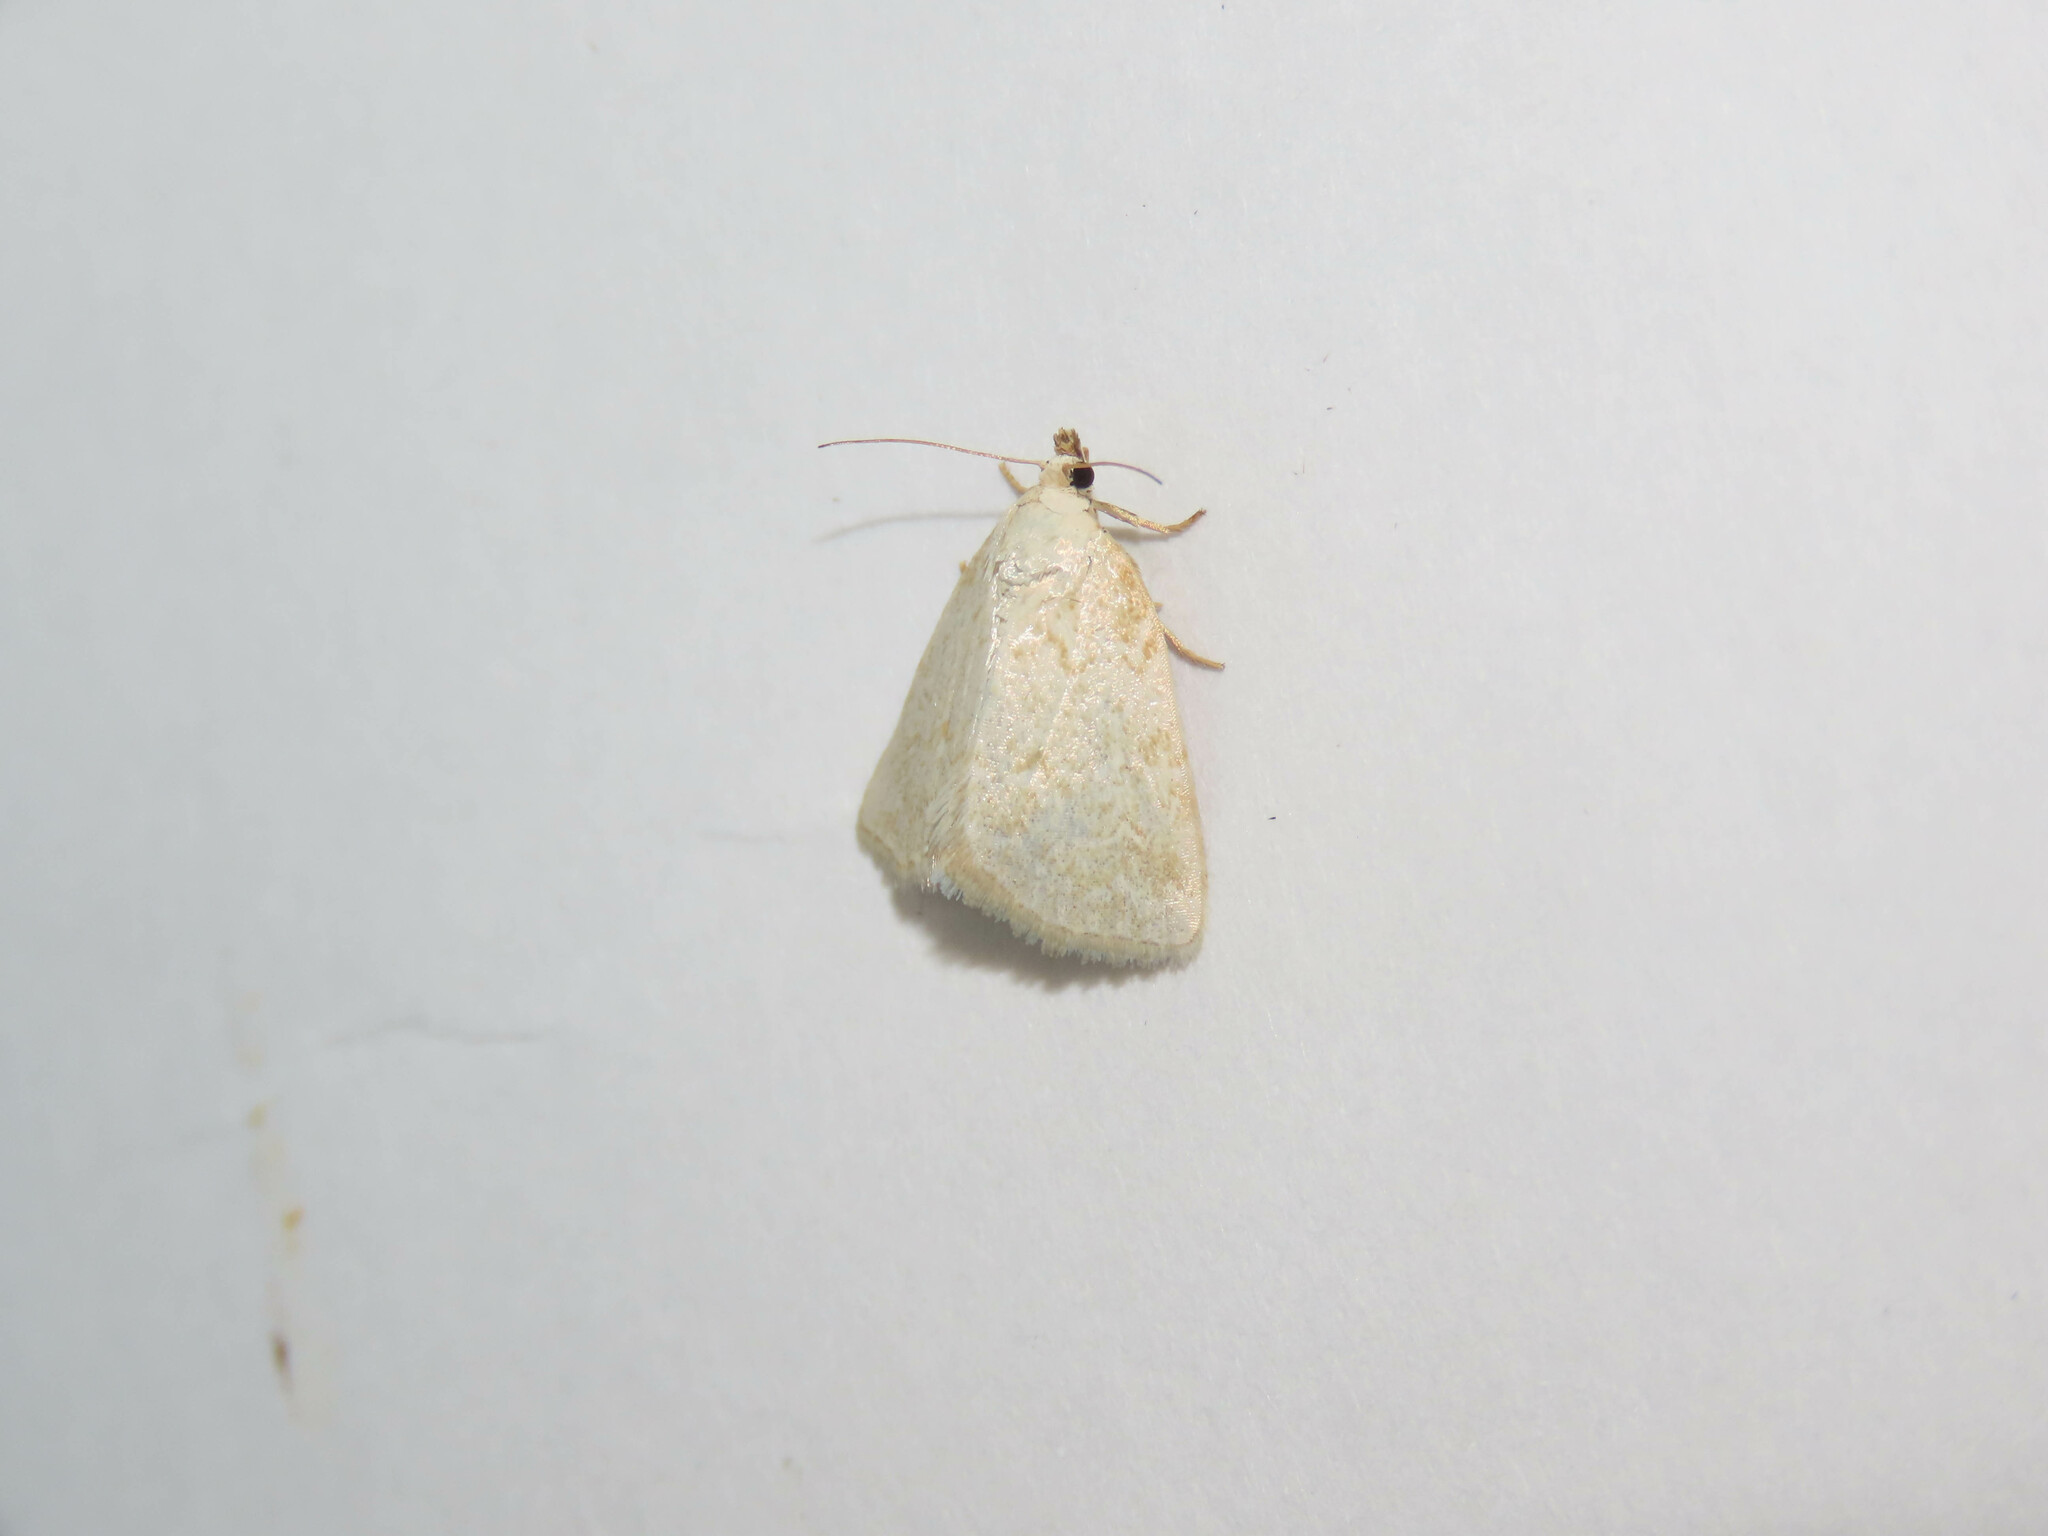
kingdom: Animalia
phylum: Arthropoda
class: Insecta
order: Lepidoptera
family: Noctuidae
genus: Protodeltote
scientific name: Protodeltote albidula
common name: Pale glyph
